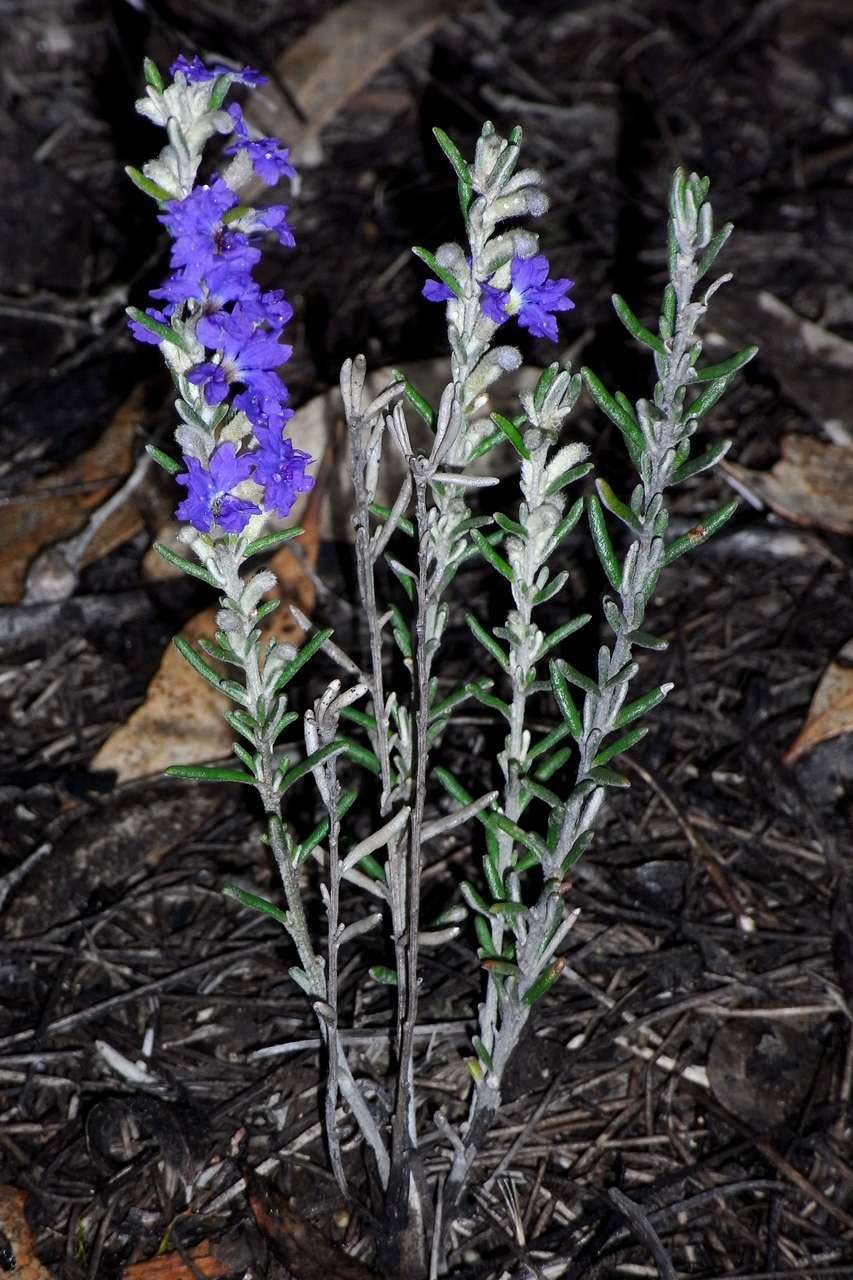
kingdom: Plantae
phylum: Tracheophyta
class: Magnoliopsida
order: Asterales
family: Goodeniaceae
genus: Dampiera
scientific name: Dampiera rosmarinifolia
